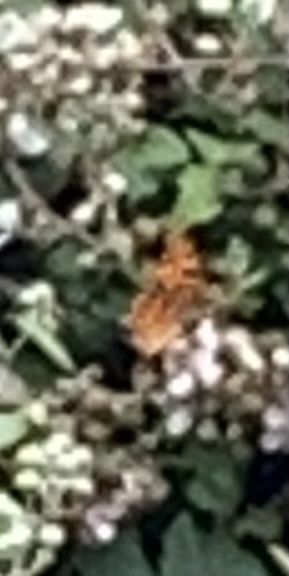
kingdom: Animalia
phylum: Arthropoda
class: Insecta
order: Lepidoptera
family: Nymphalidae
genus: Polygonia
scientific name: Polygonia c-album
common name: Comma
